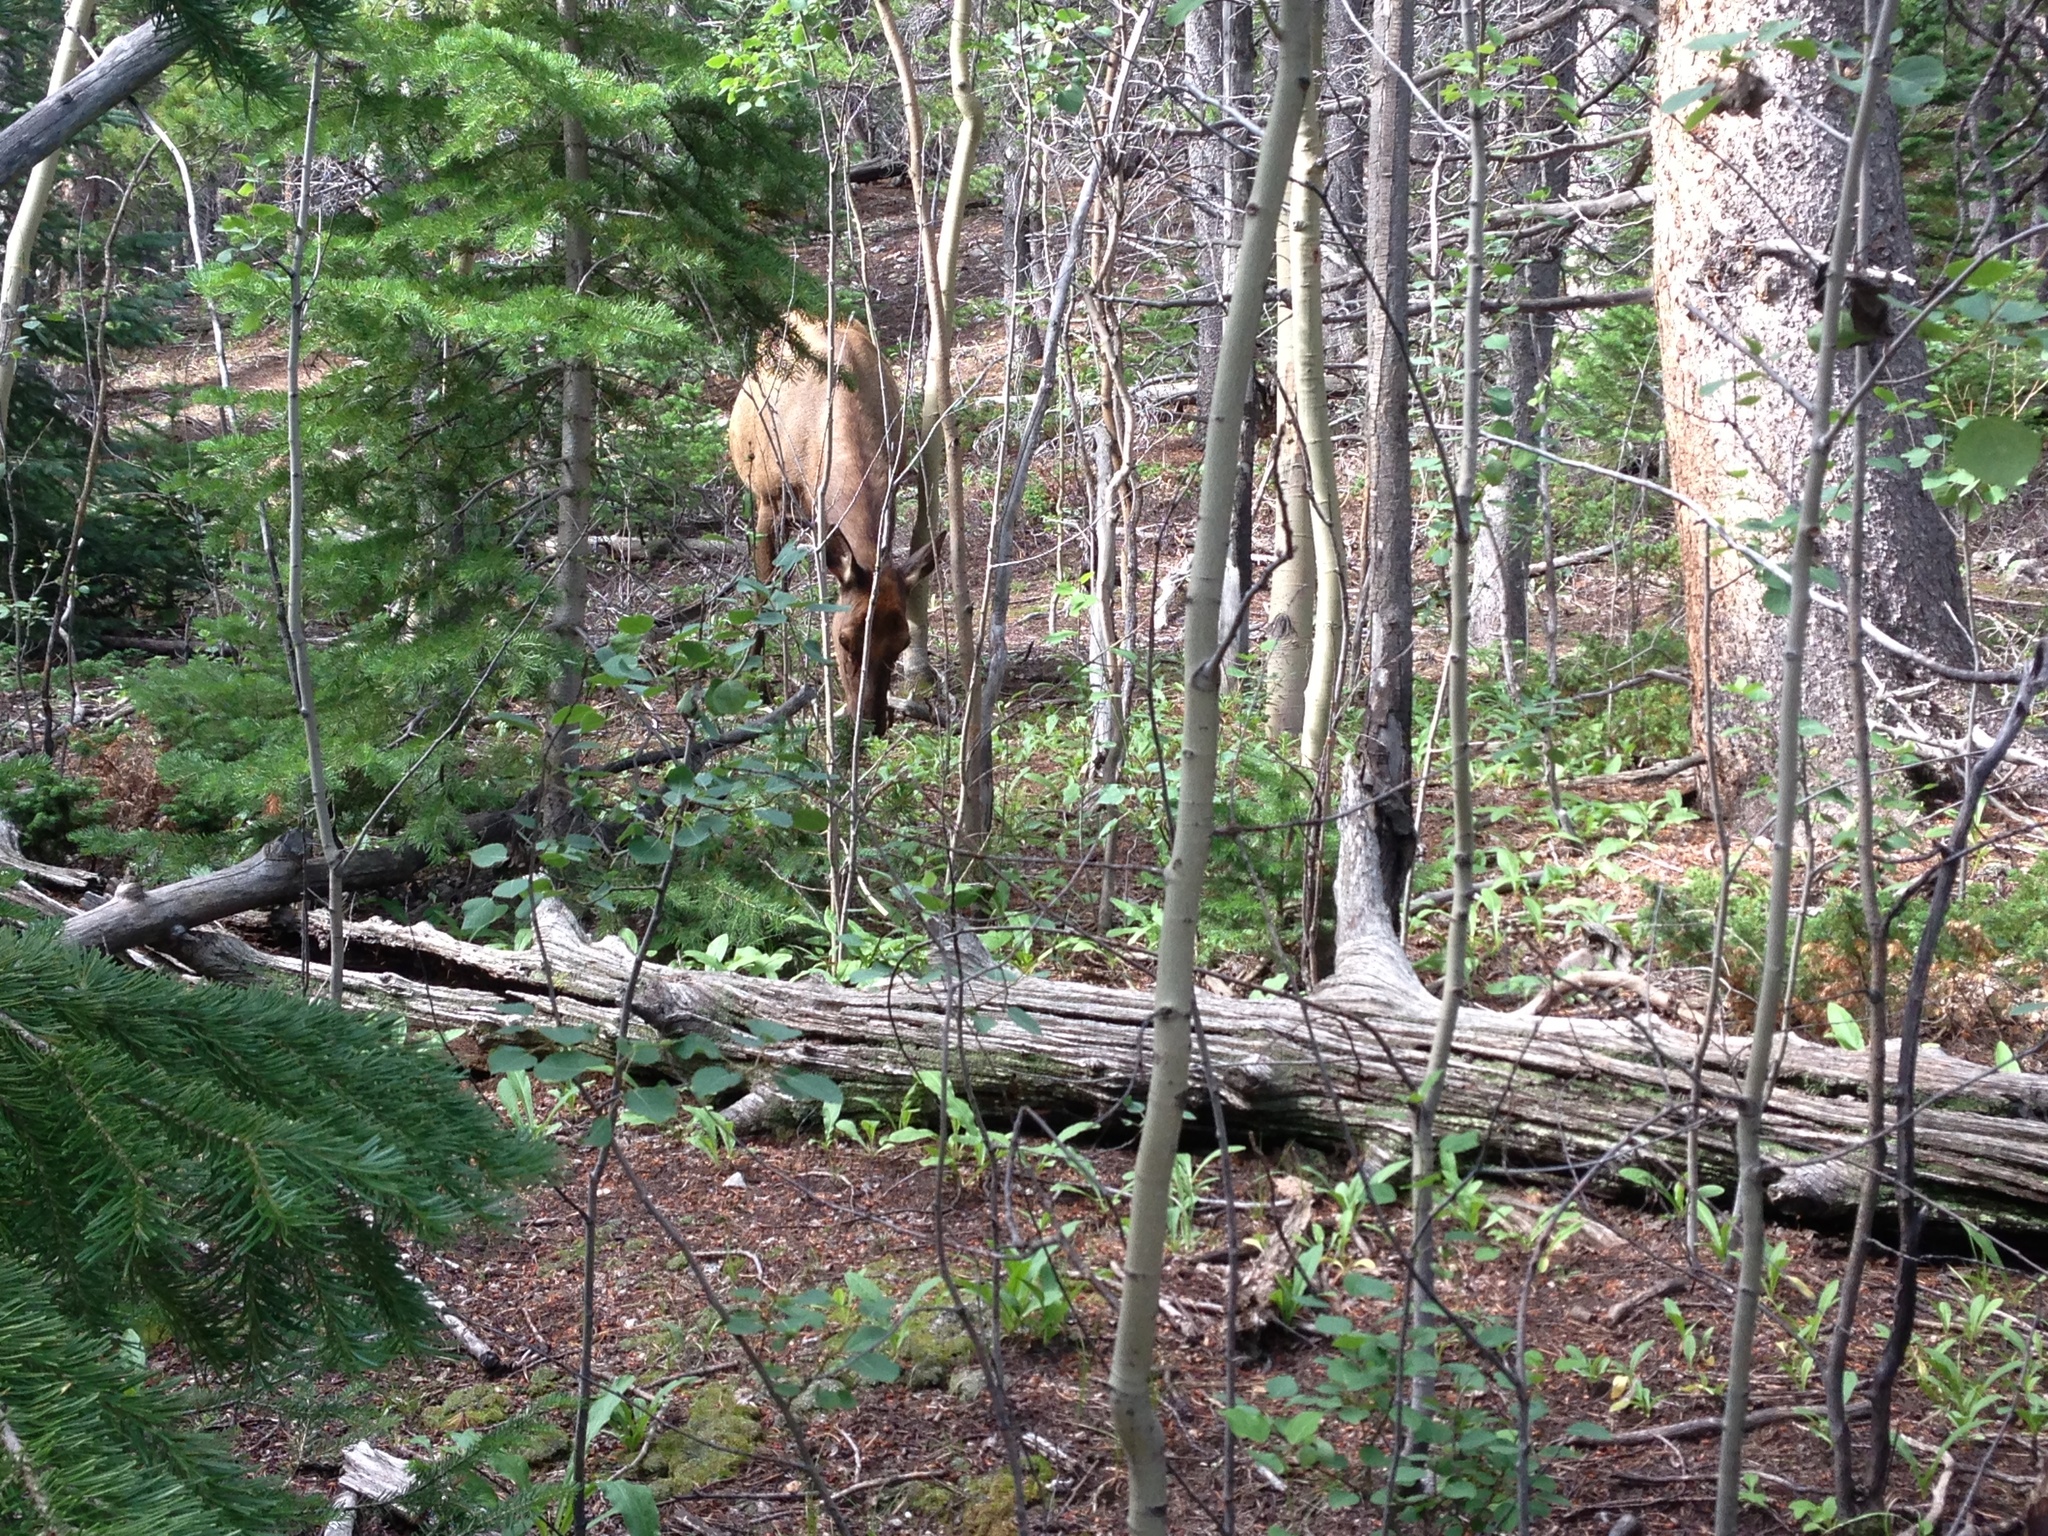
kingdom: Animalia
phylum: Chordata
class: Mammalia
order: Artiodactyla
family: Cervidae
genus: Cervus
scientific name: Cervus elaphus
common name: Red deer
